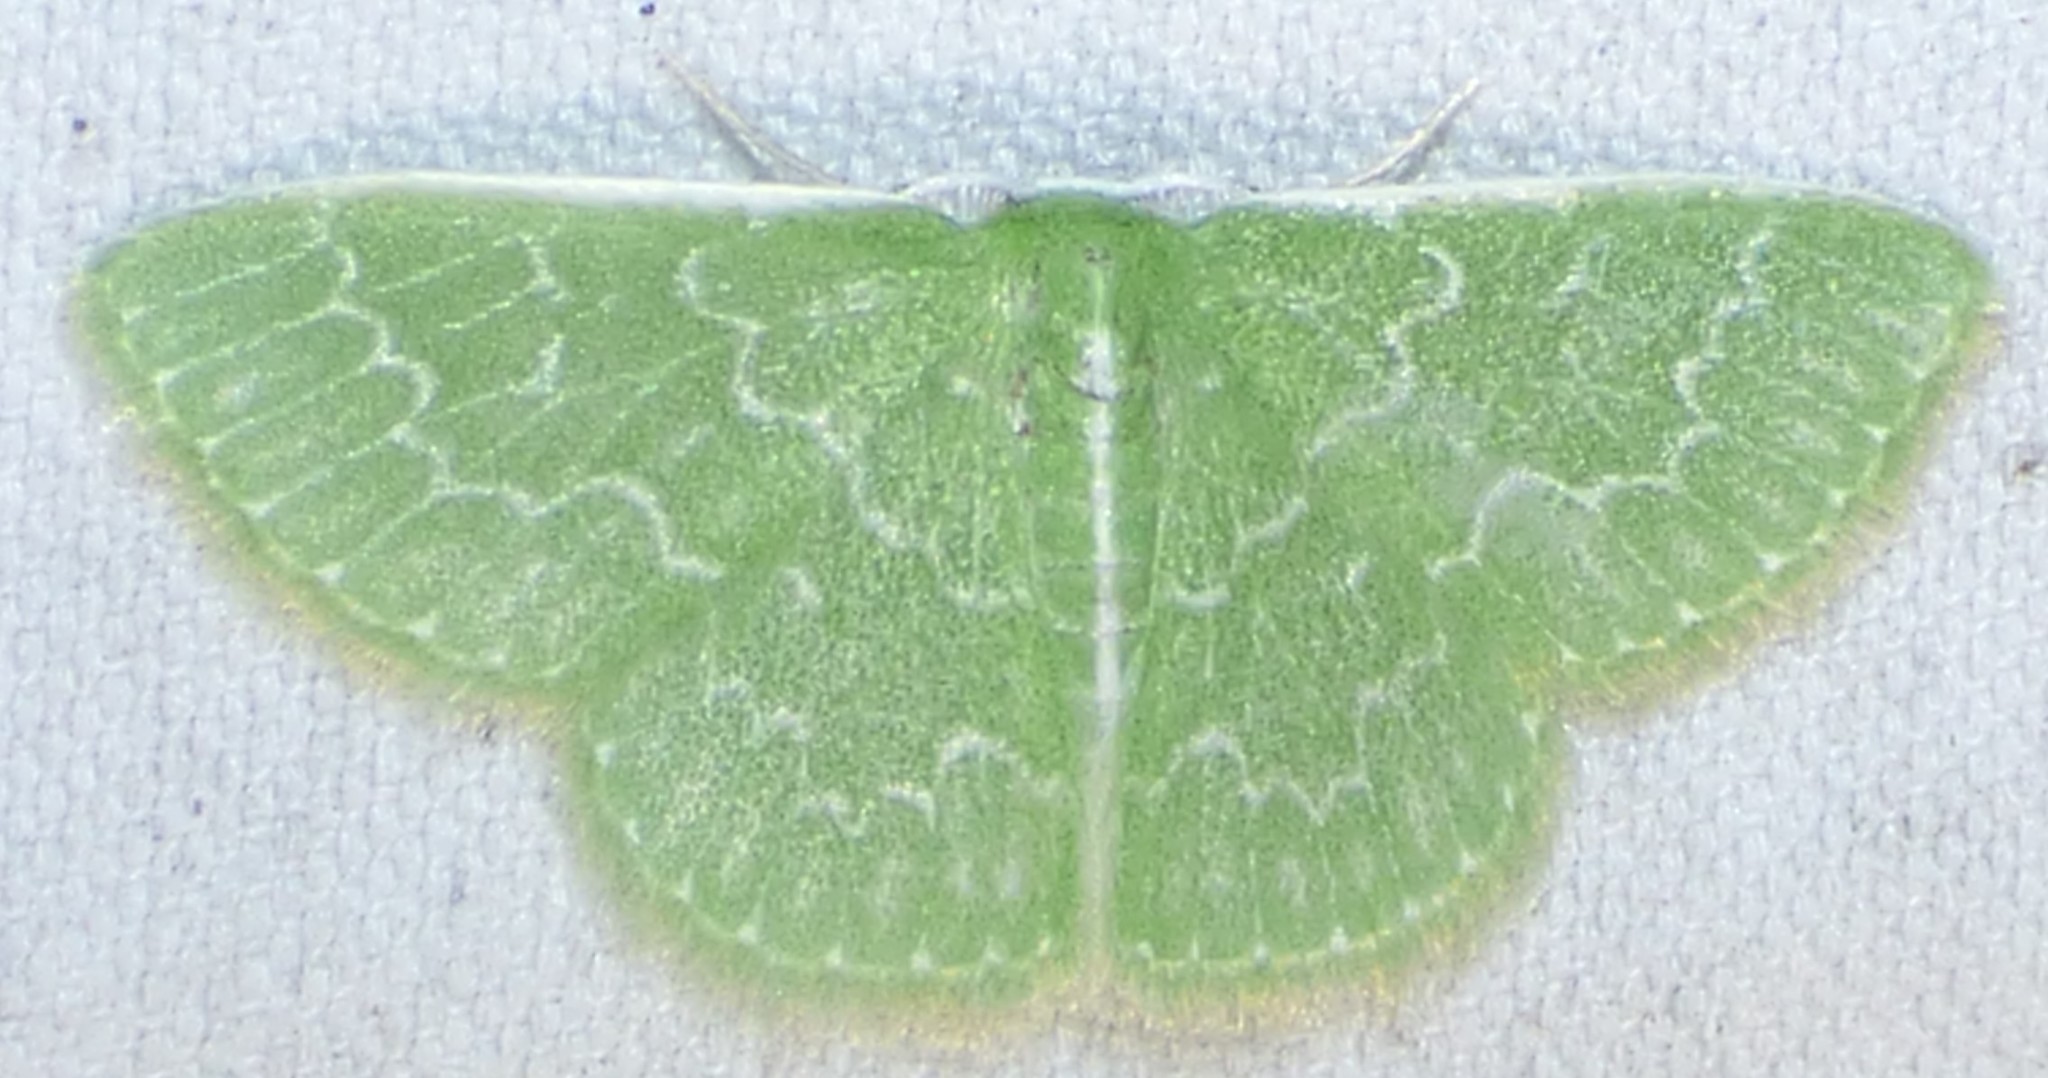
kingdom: Animalia
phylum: Arthropoda
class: Insecta
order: Lepidoptera
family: Geometridae
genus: Synchlora
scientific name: Synchlora frondaria
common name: Southern emerald
